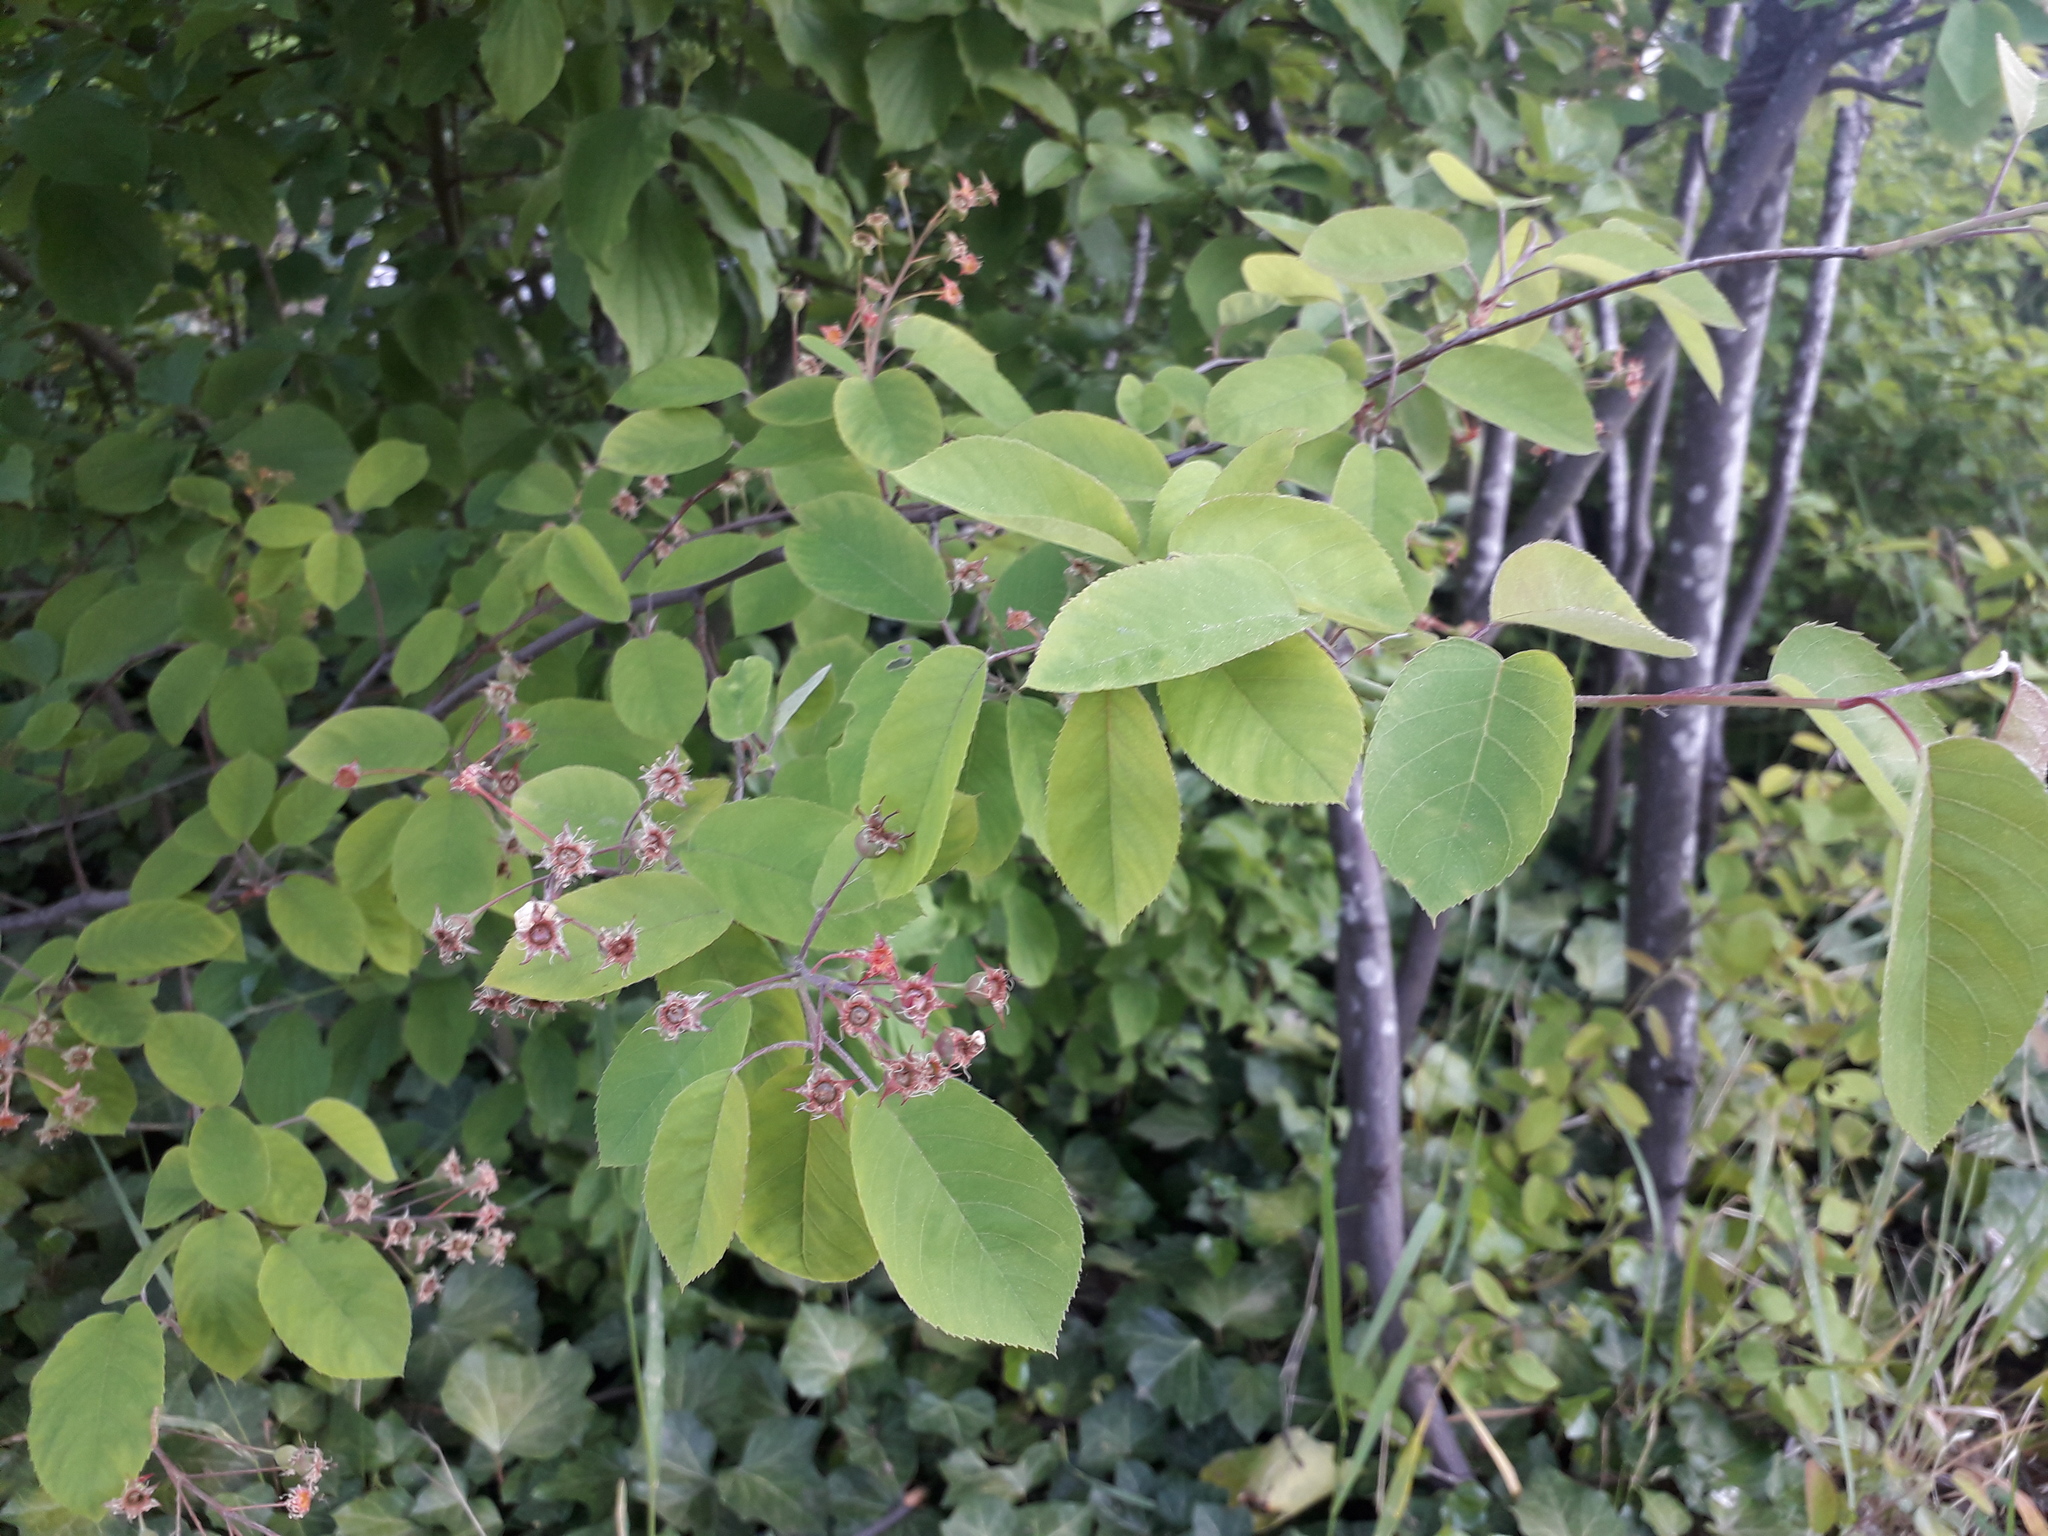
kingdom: Plantae
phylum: Tracheophyta
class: Magnoliopsida
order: Rosales
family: Rosaceae
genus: Amelanchier
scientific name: Amelanchier ovalis
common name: Serviceberry
